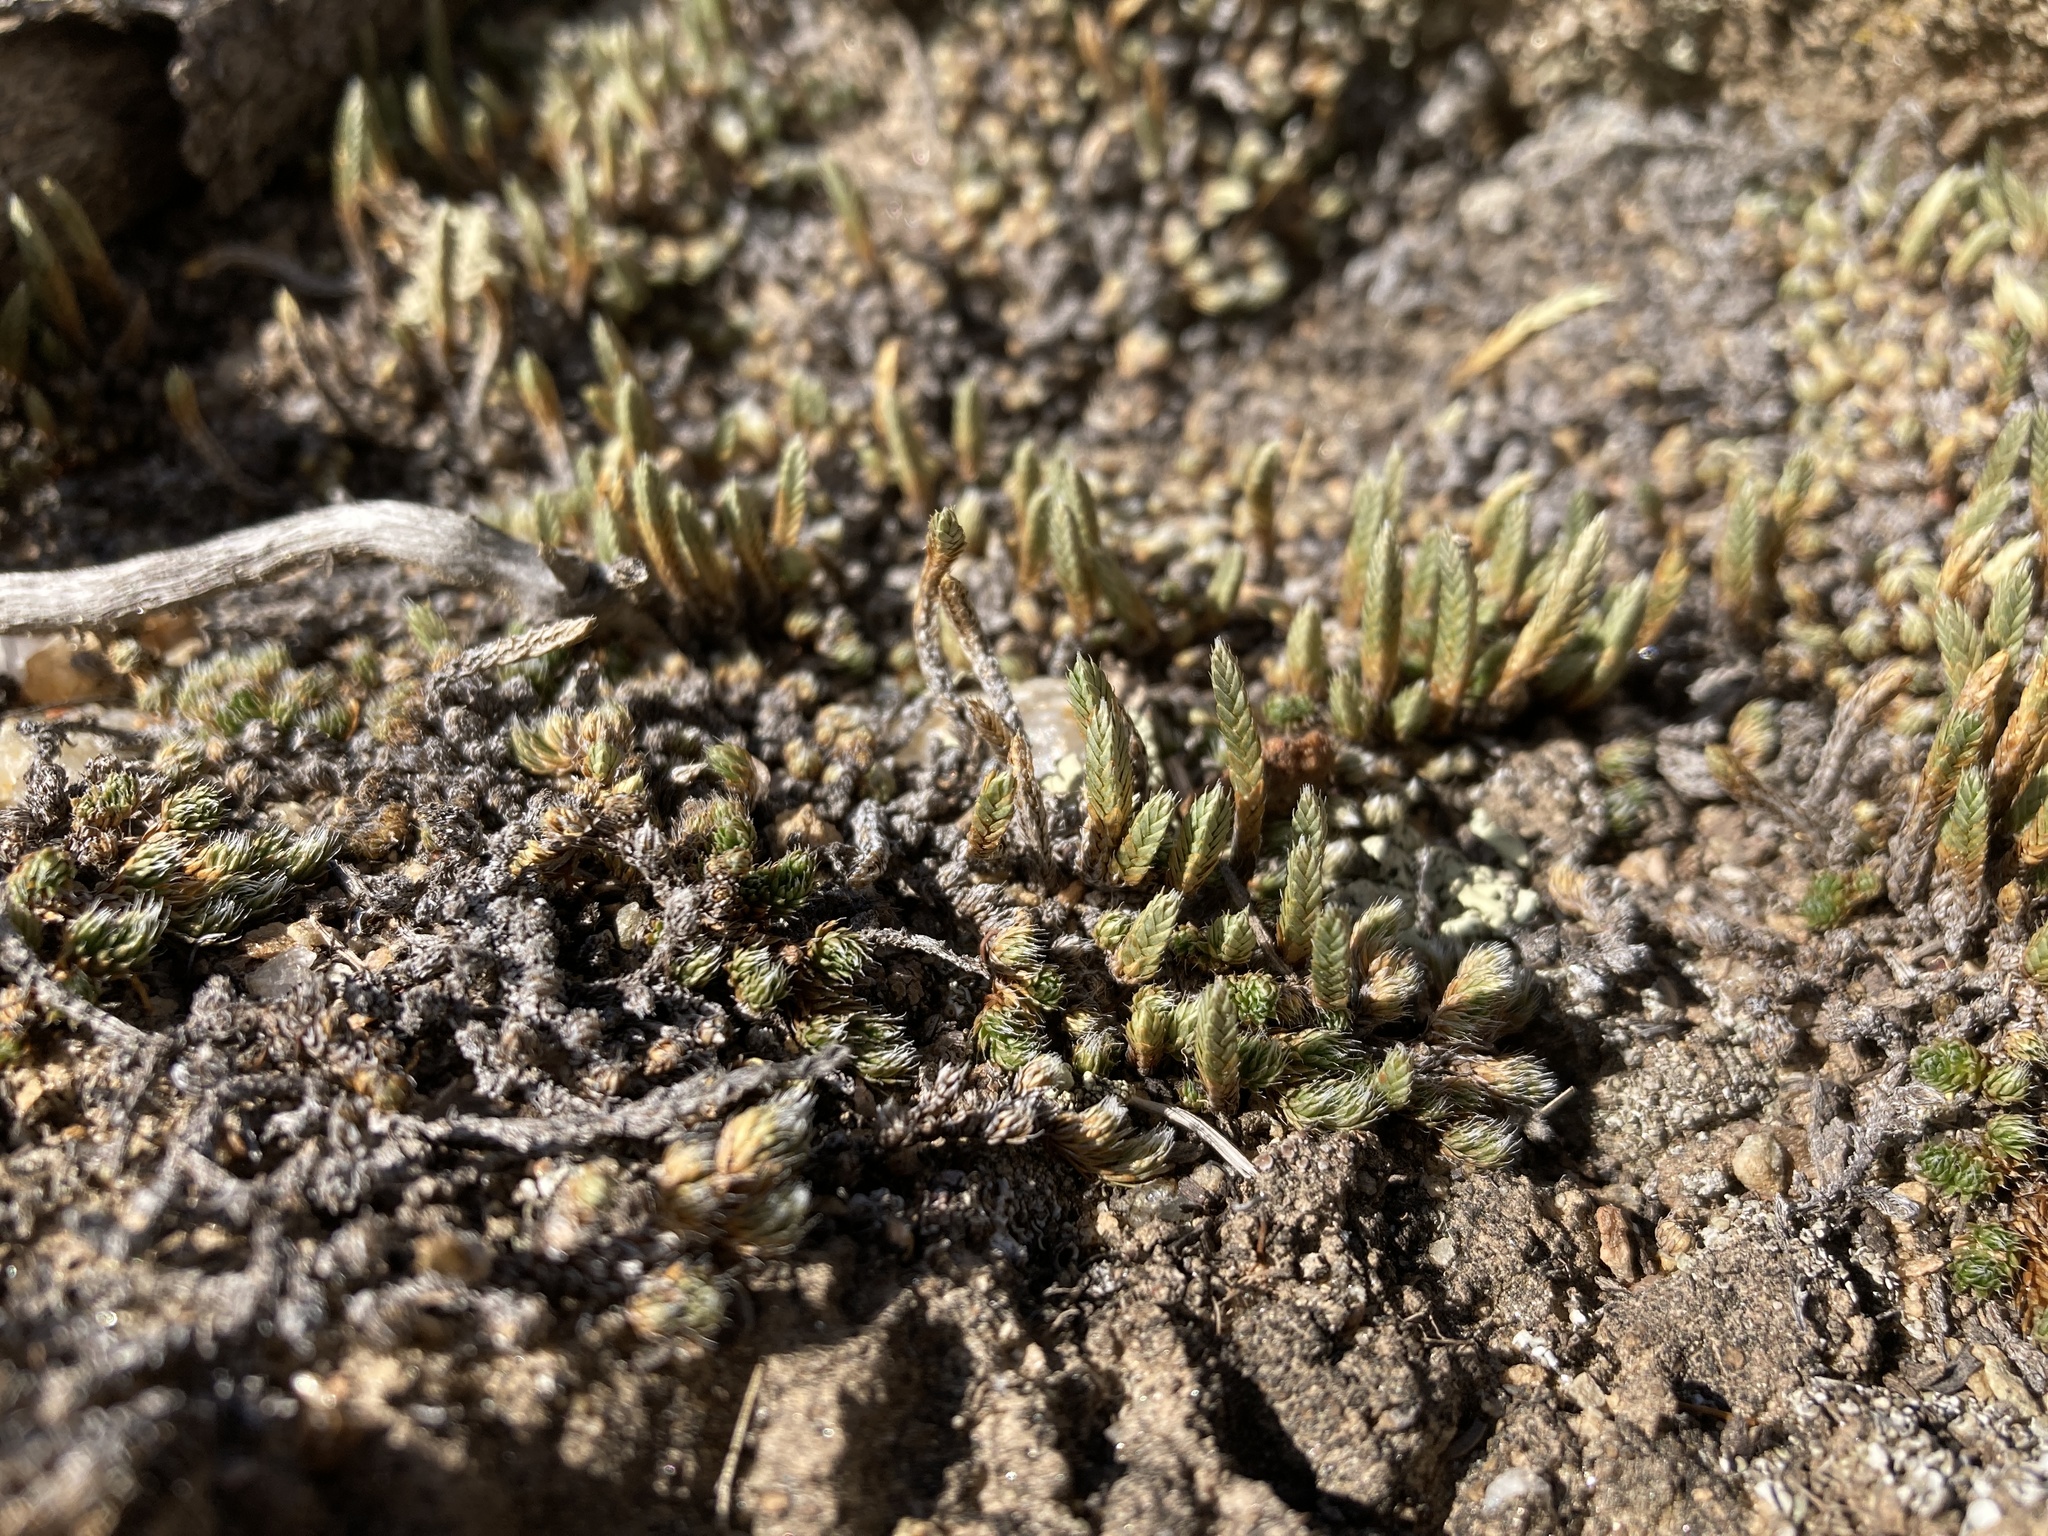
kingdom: Plantae
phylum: Tracheophyta
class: Lycopodiopsida
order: Selaginellales
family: Selaginellaceae
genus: Selaginella
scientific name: Selaginella densa
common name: Mountain spike-moss
